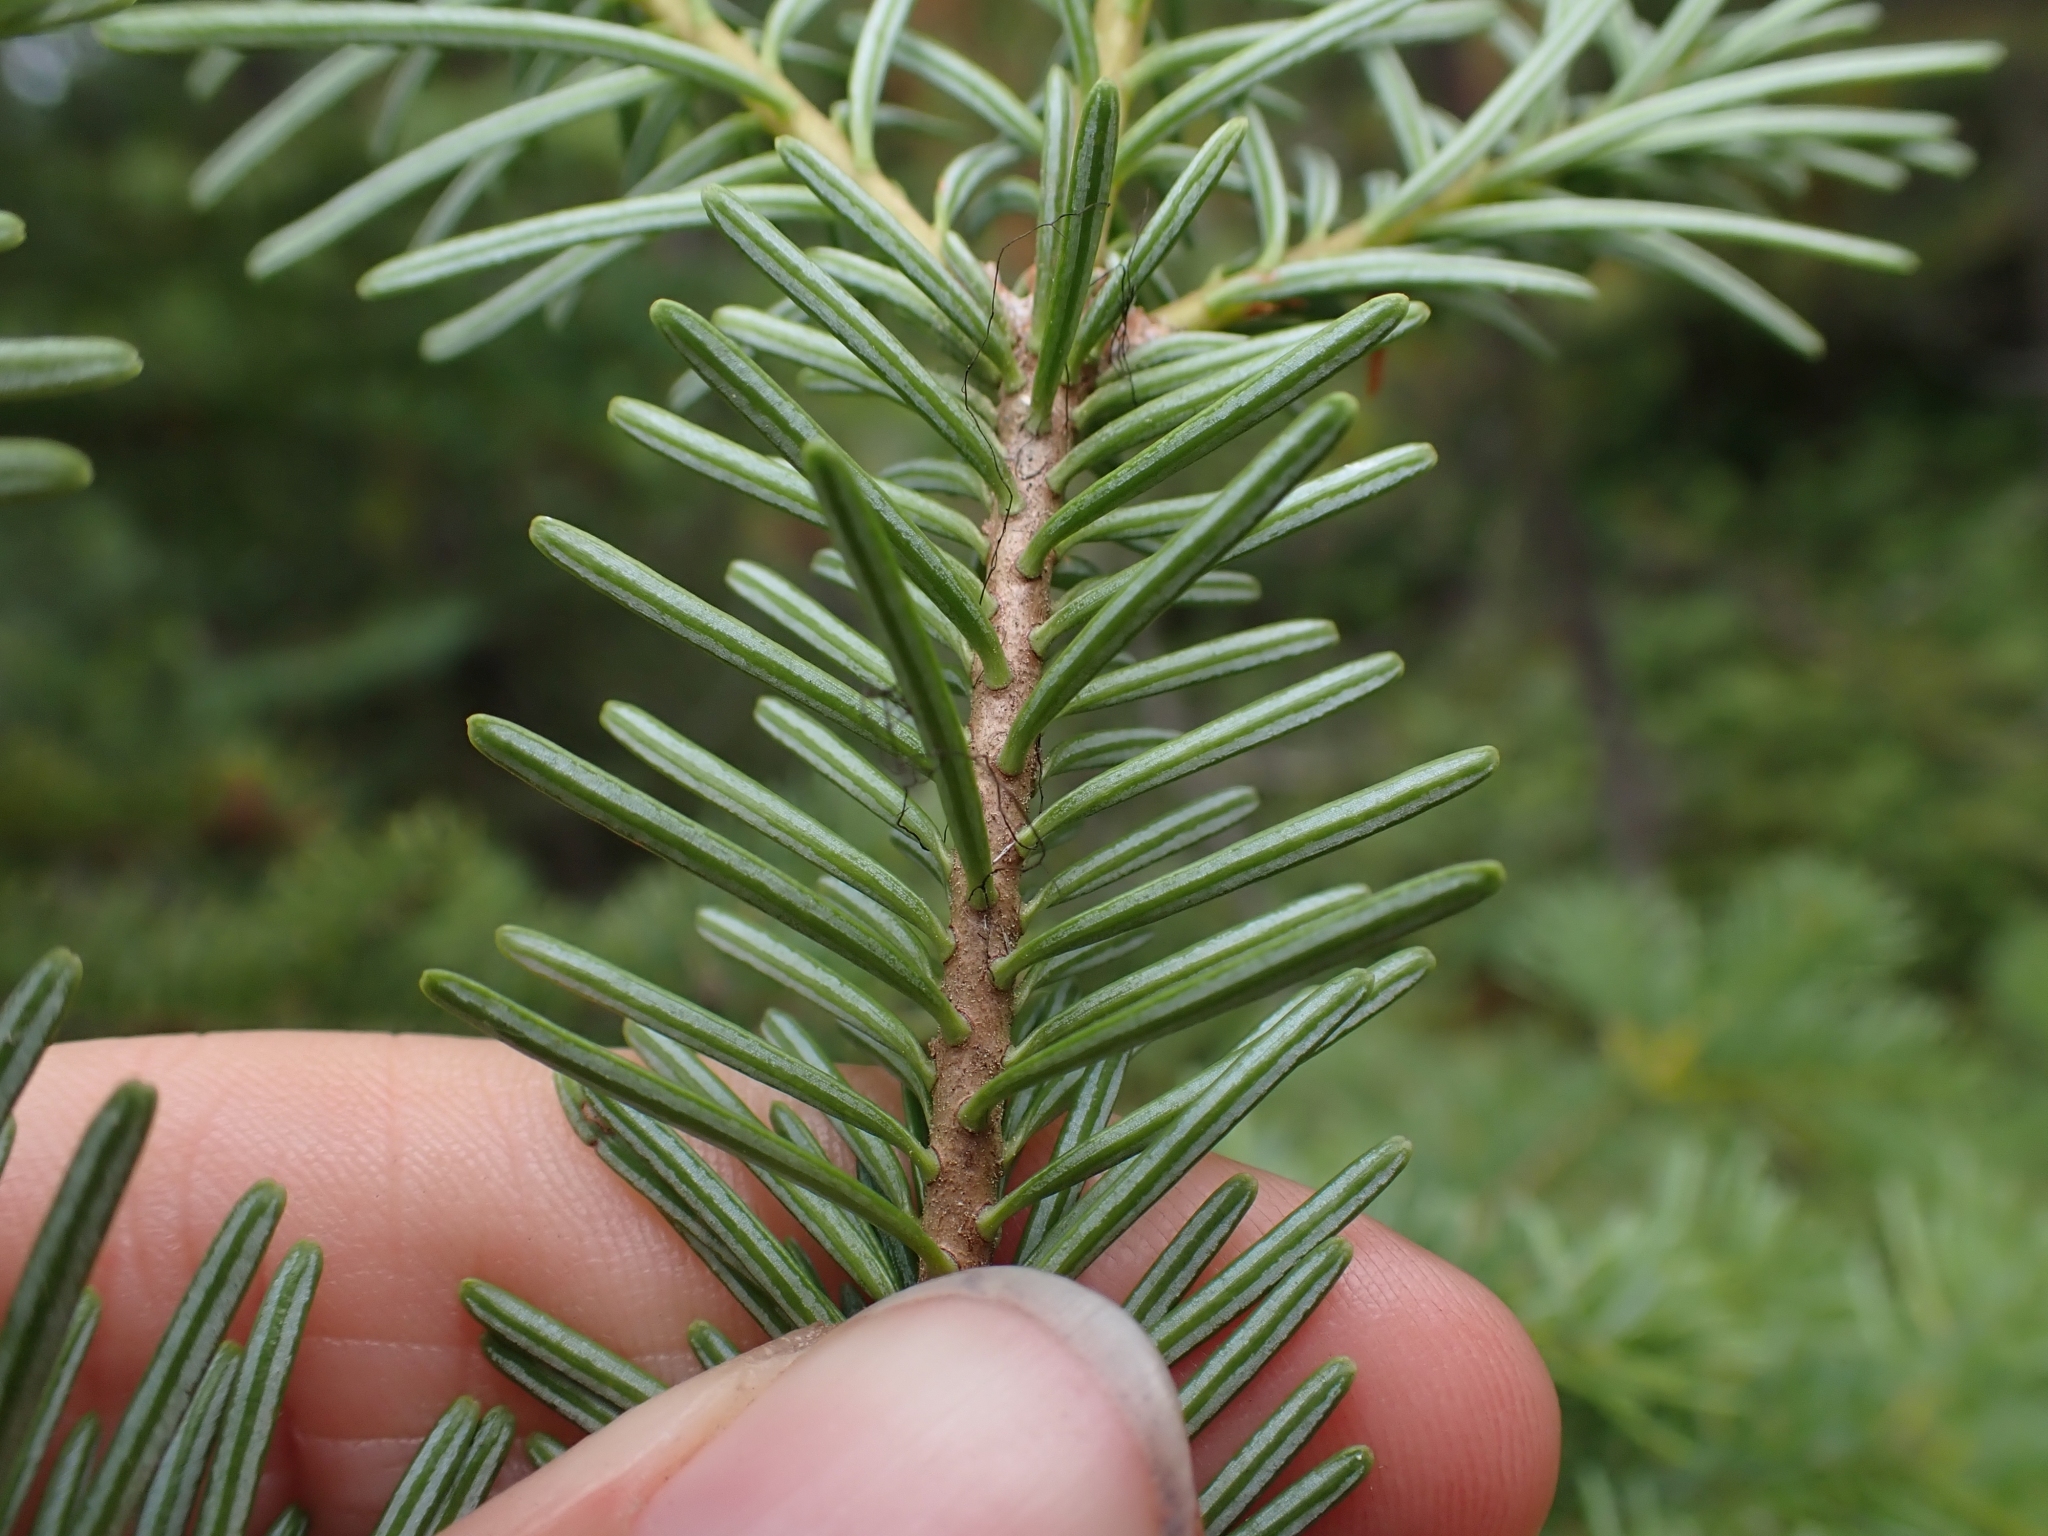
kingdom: Plantae
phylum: Tracheophyta
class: Pinopsida
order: Pinales
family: Pinaceae
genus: Abies
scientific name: Abies lasiocarpa
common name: Subalpine fir
